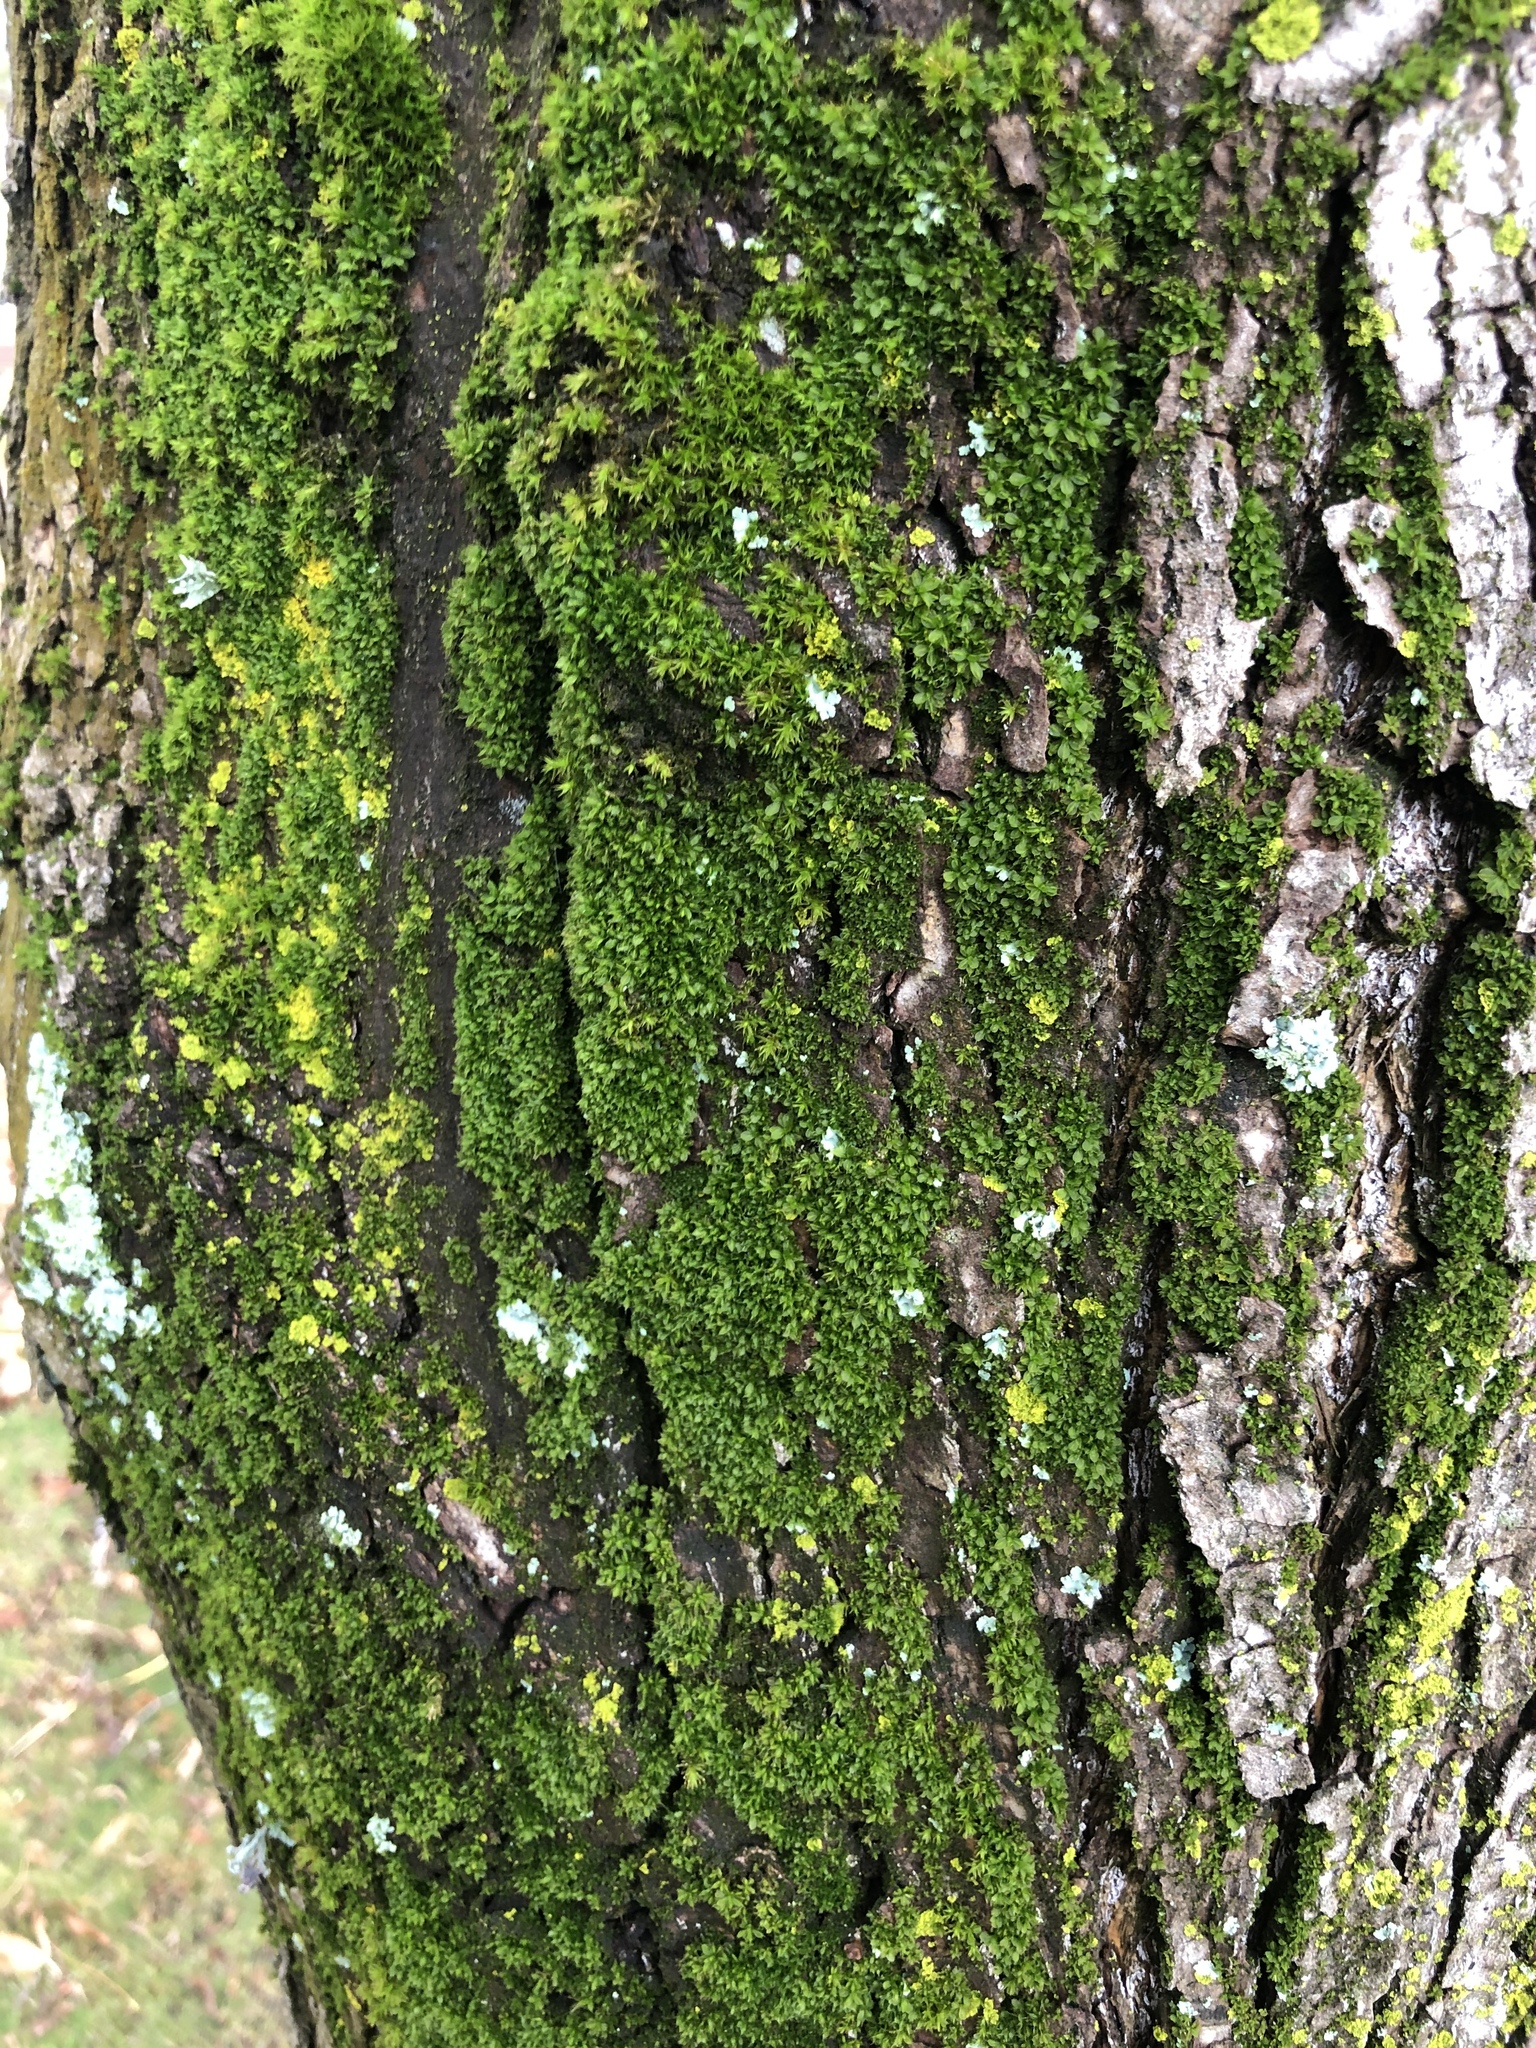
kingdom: Plantae
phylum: Bryophyta
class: Bryopsida
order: Pottiales
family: Pottiaceae
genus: Syntrichia
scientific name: Syntrichia papillosa
